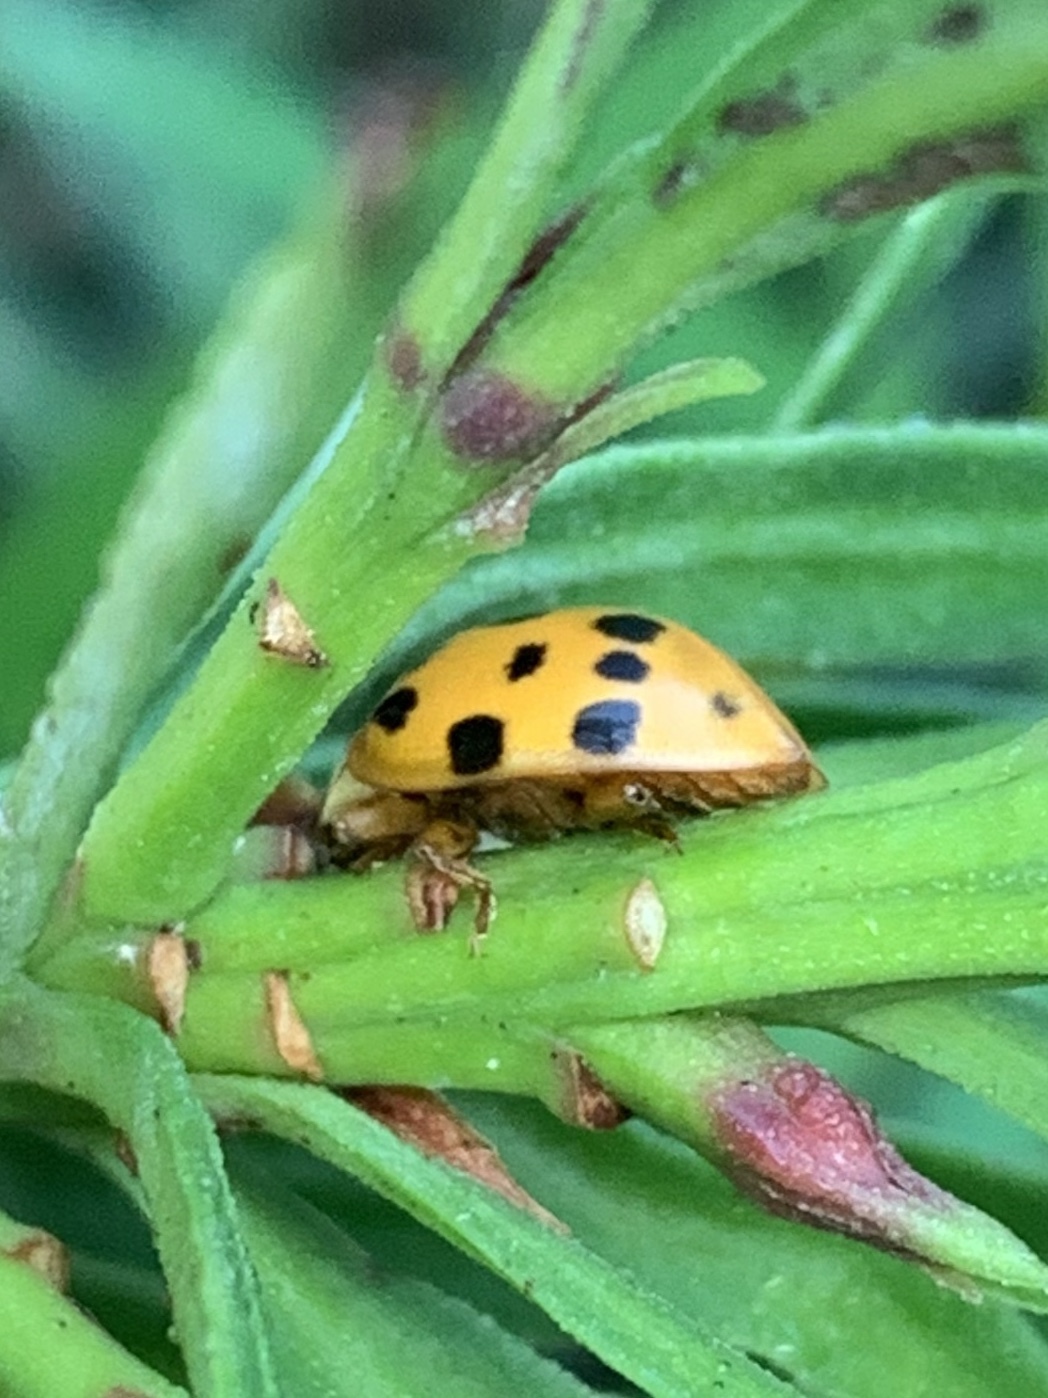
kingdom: Animalia
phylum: Arthropoda
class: Insecta
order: Coleoptera
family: Coccinellidae
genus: Harmonia
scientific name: Harmonia axyridis
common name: Harlequin ladybird
